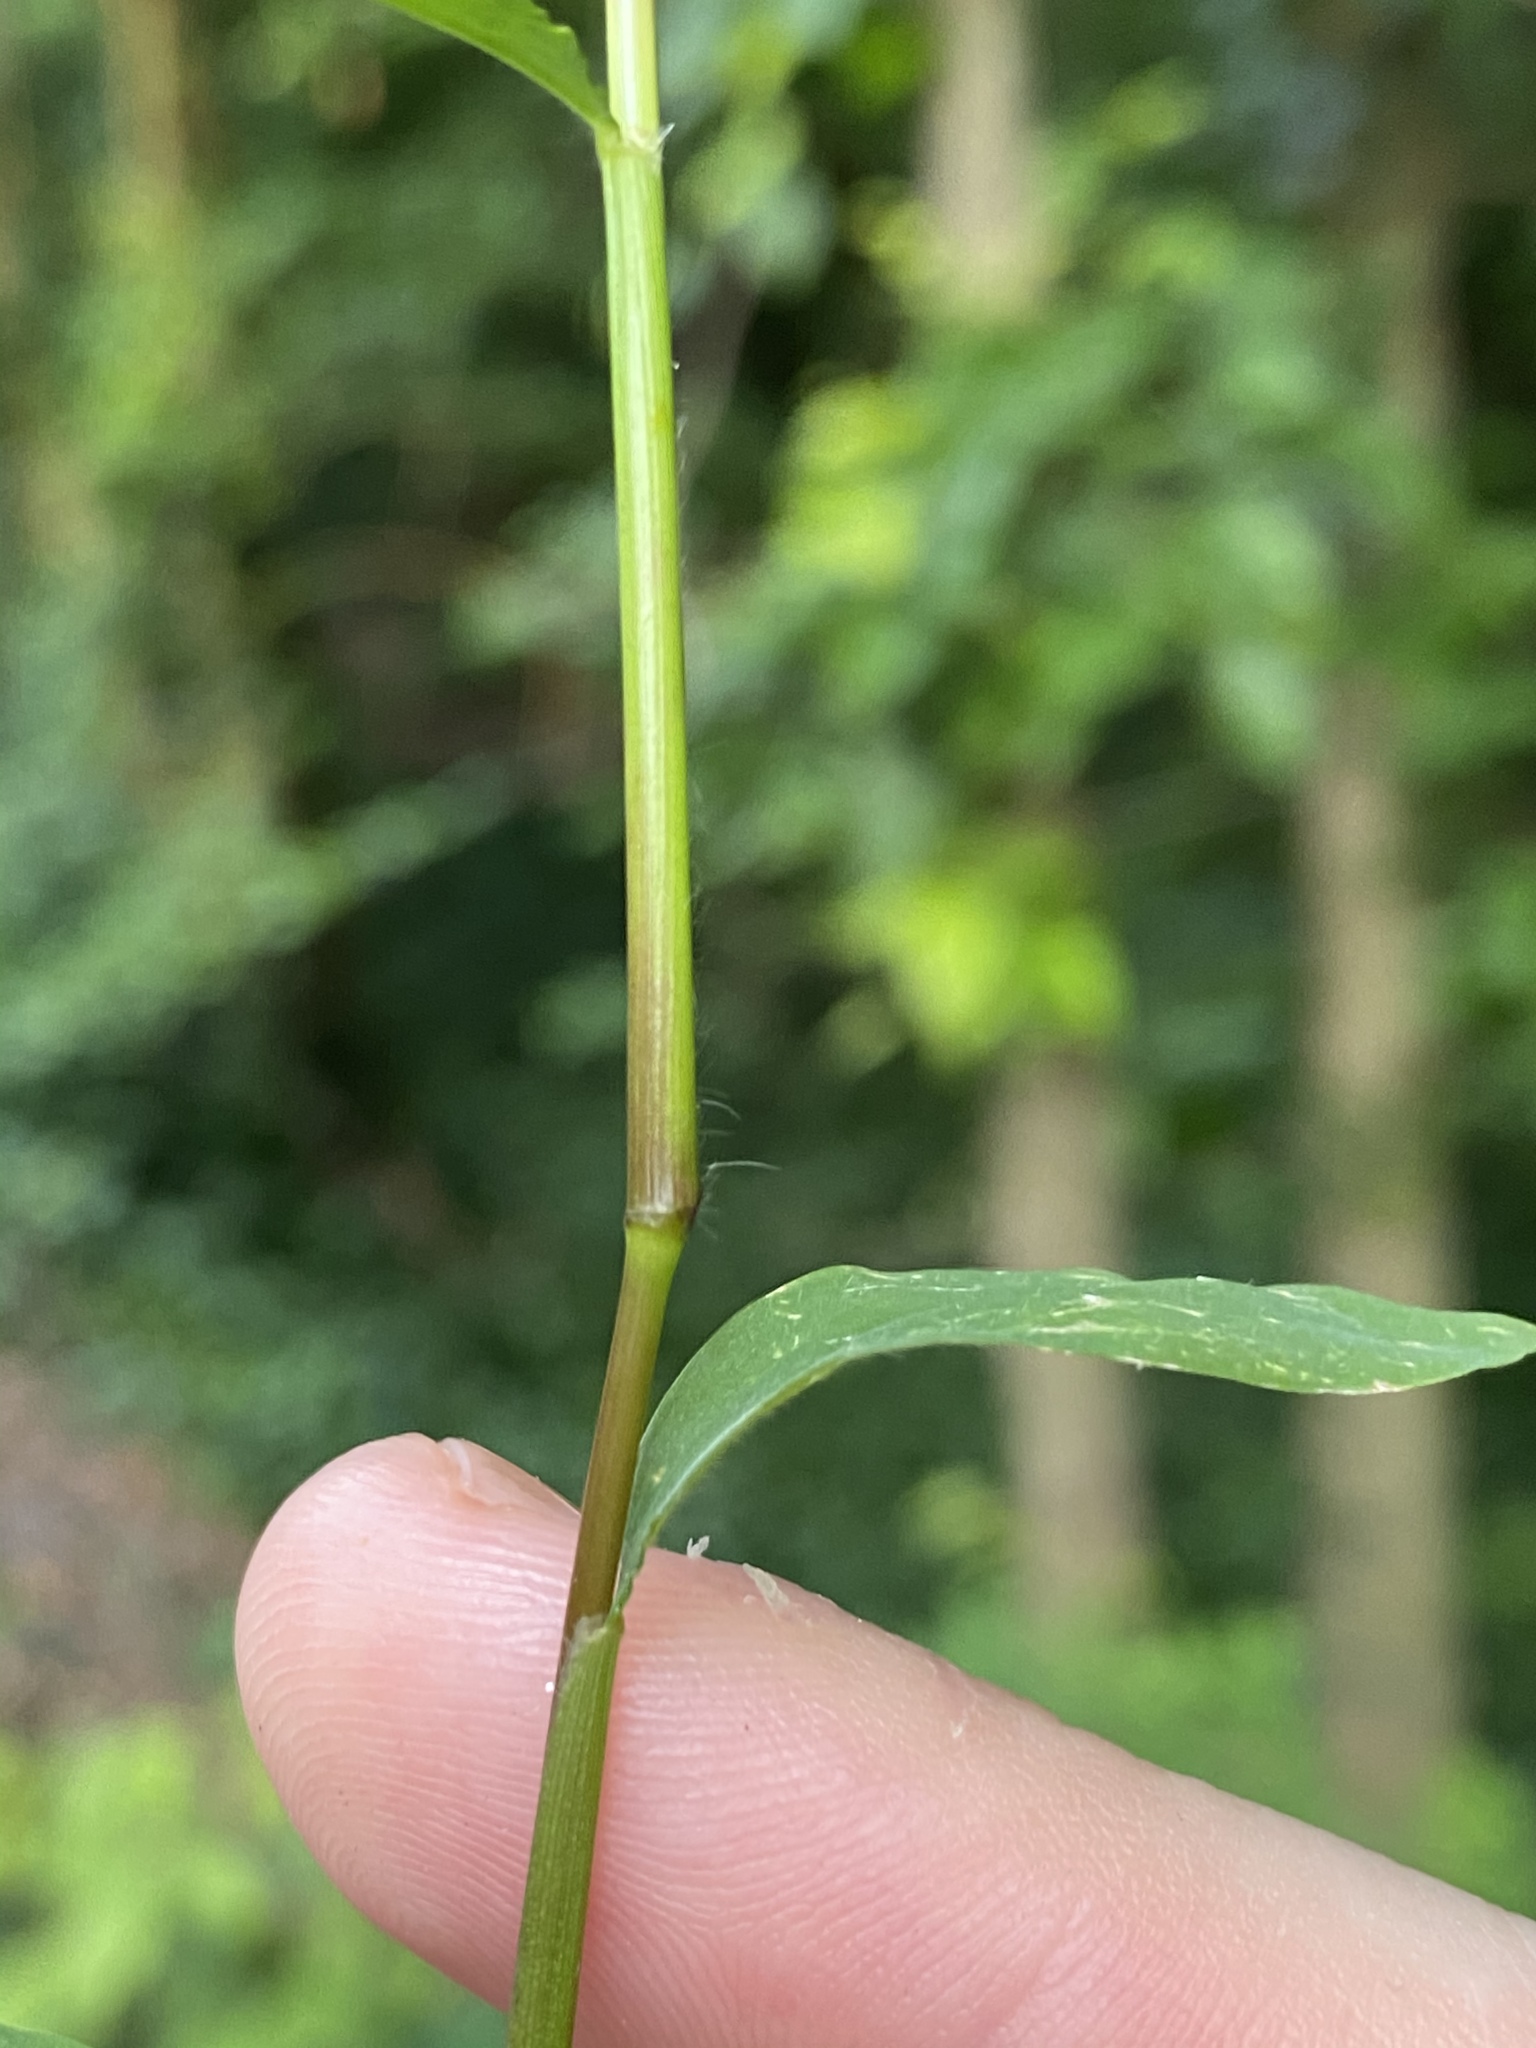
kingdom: Plantae
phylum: Tracheophyta
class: Liliopsida
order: Poales
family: Poaceae
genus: Microstegium
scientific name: Microstegium vimineum
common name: Japanese stiltgrass
